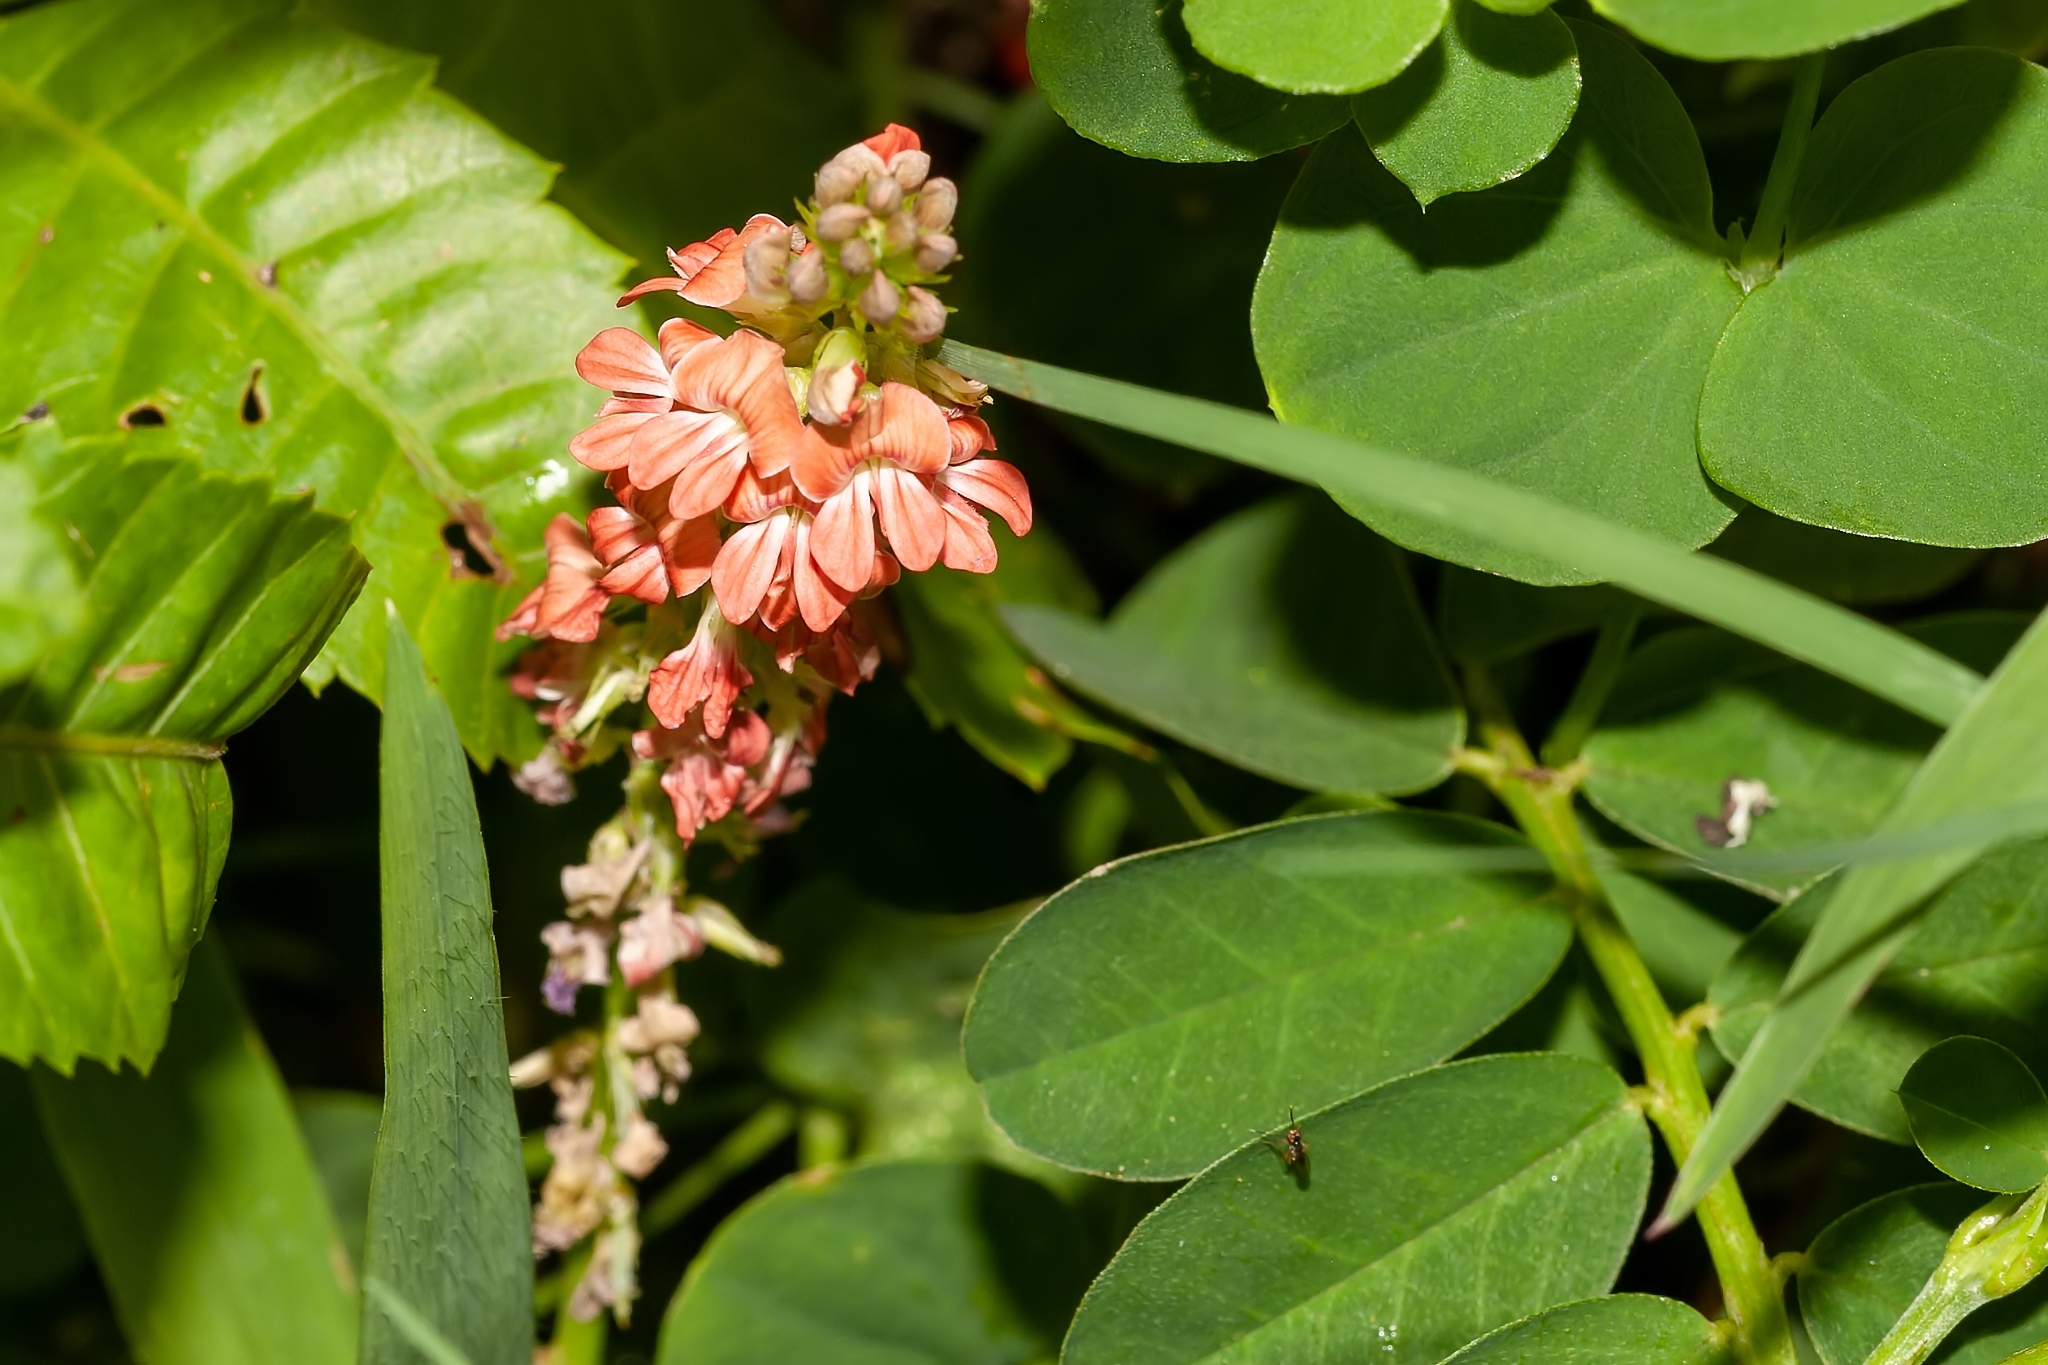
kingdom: Plantae
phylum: Tracheophyta
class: Magnoliopsida
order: Fabales
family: Fabaceae
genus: Indigofera
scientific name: Indigofera spicata
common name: Creeping indigo
